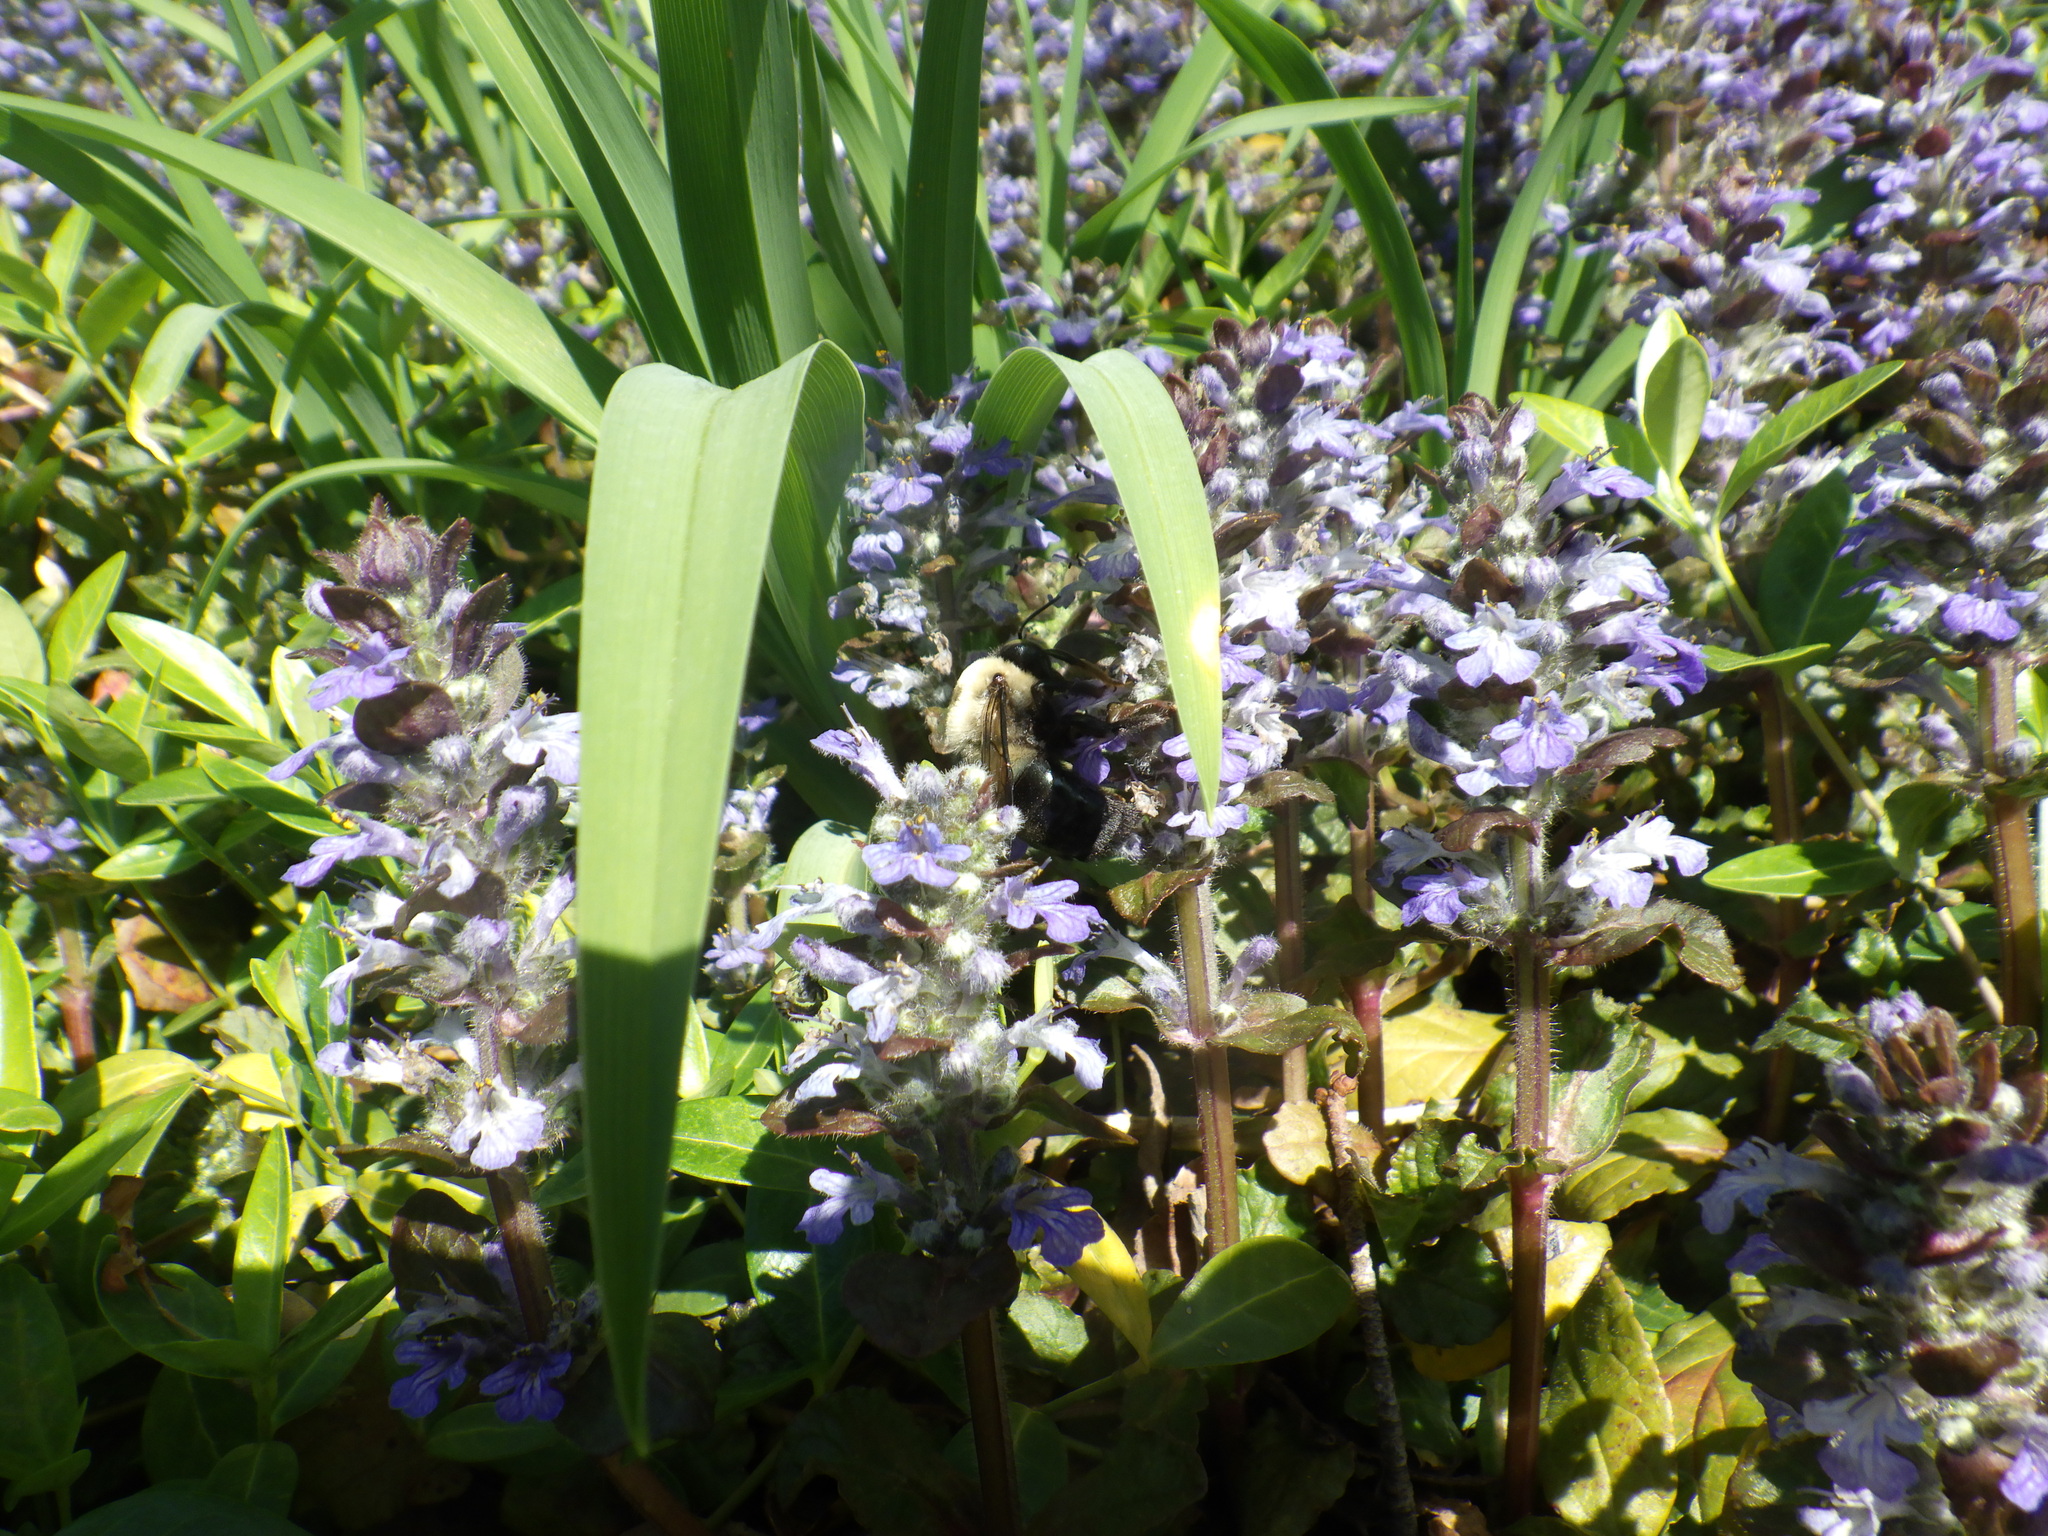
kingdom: Animalia
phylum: Arthropoda
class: Insecta
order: Hymenoptera
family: Apidae
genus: Xylocopa
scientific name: Xylocopa virginica
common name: Carpenter bee
